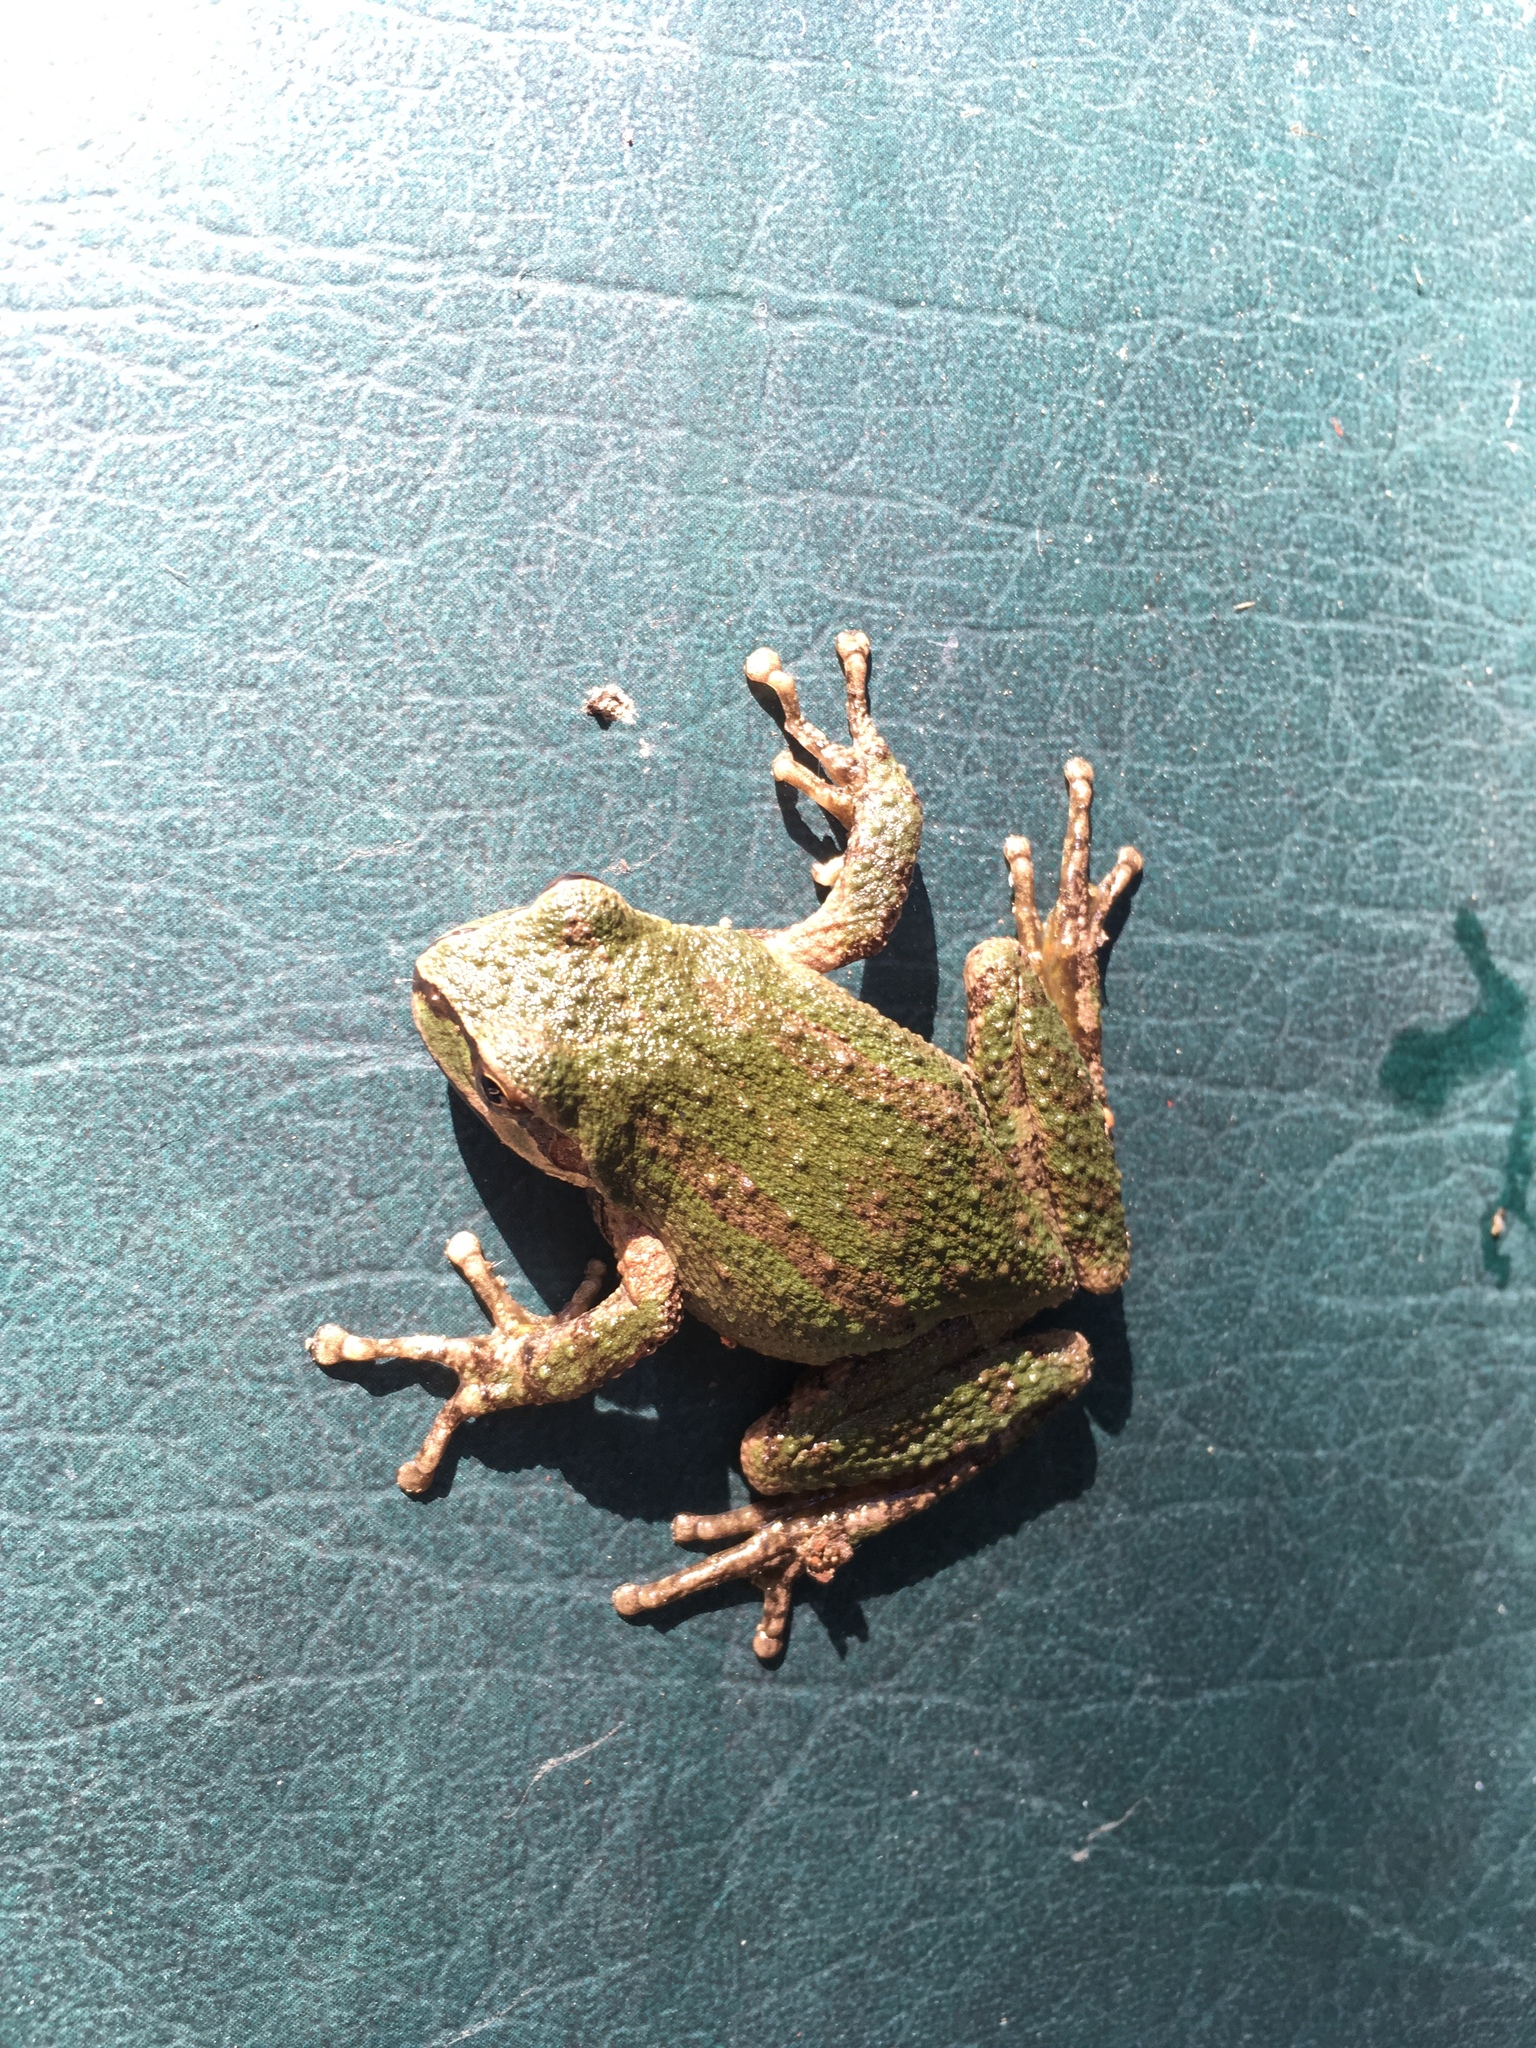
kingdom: Animalia
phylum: Chordata
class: Amphibia
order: Anura
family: Hylidae
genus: Pseudacris
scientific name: Pseudacris regilla
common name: Pacific chorus frog
